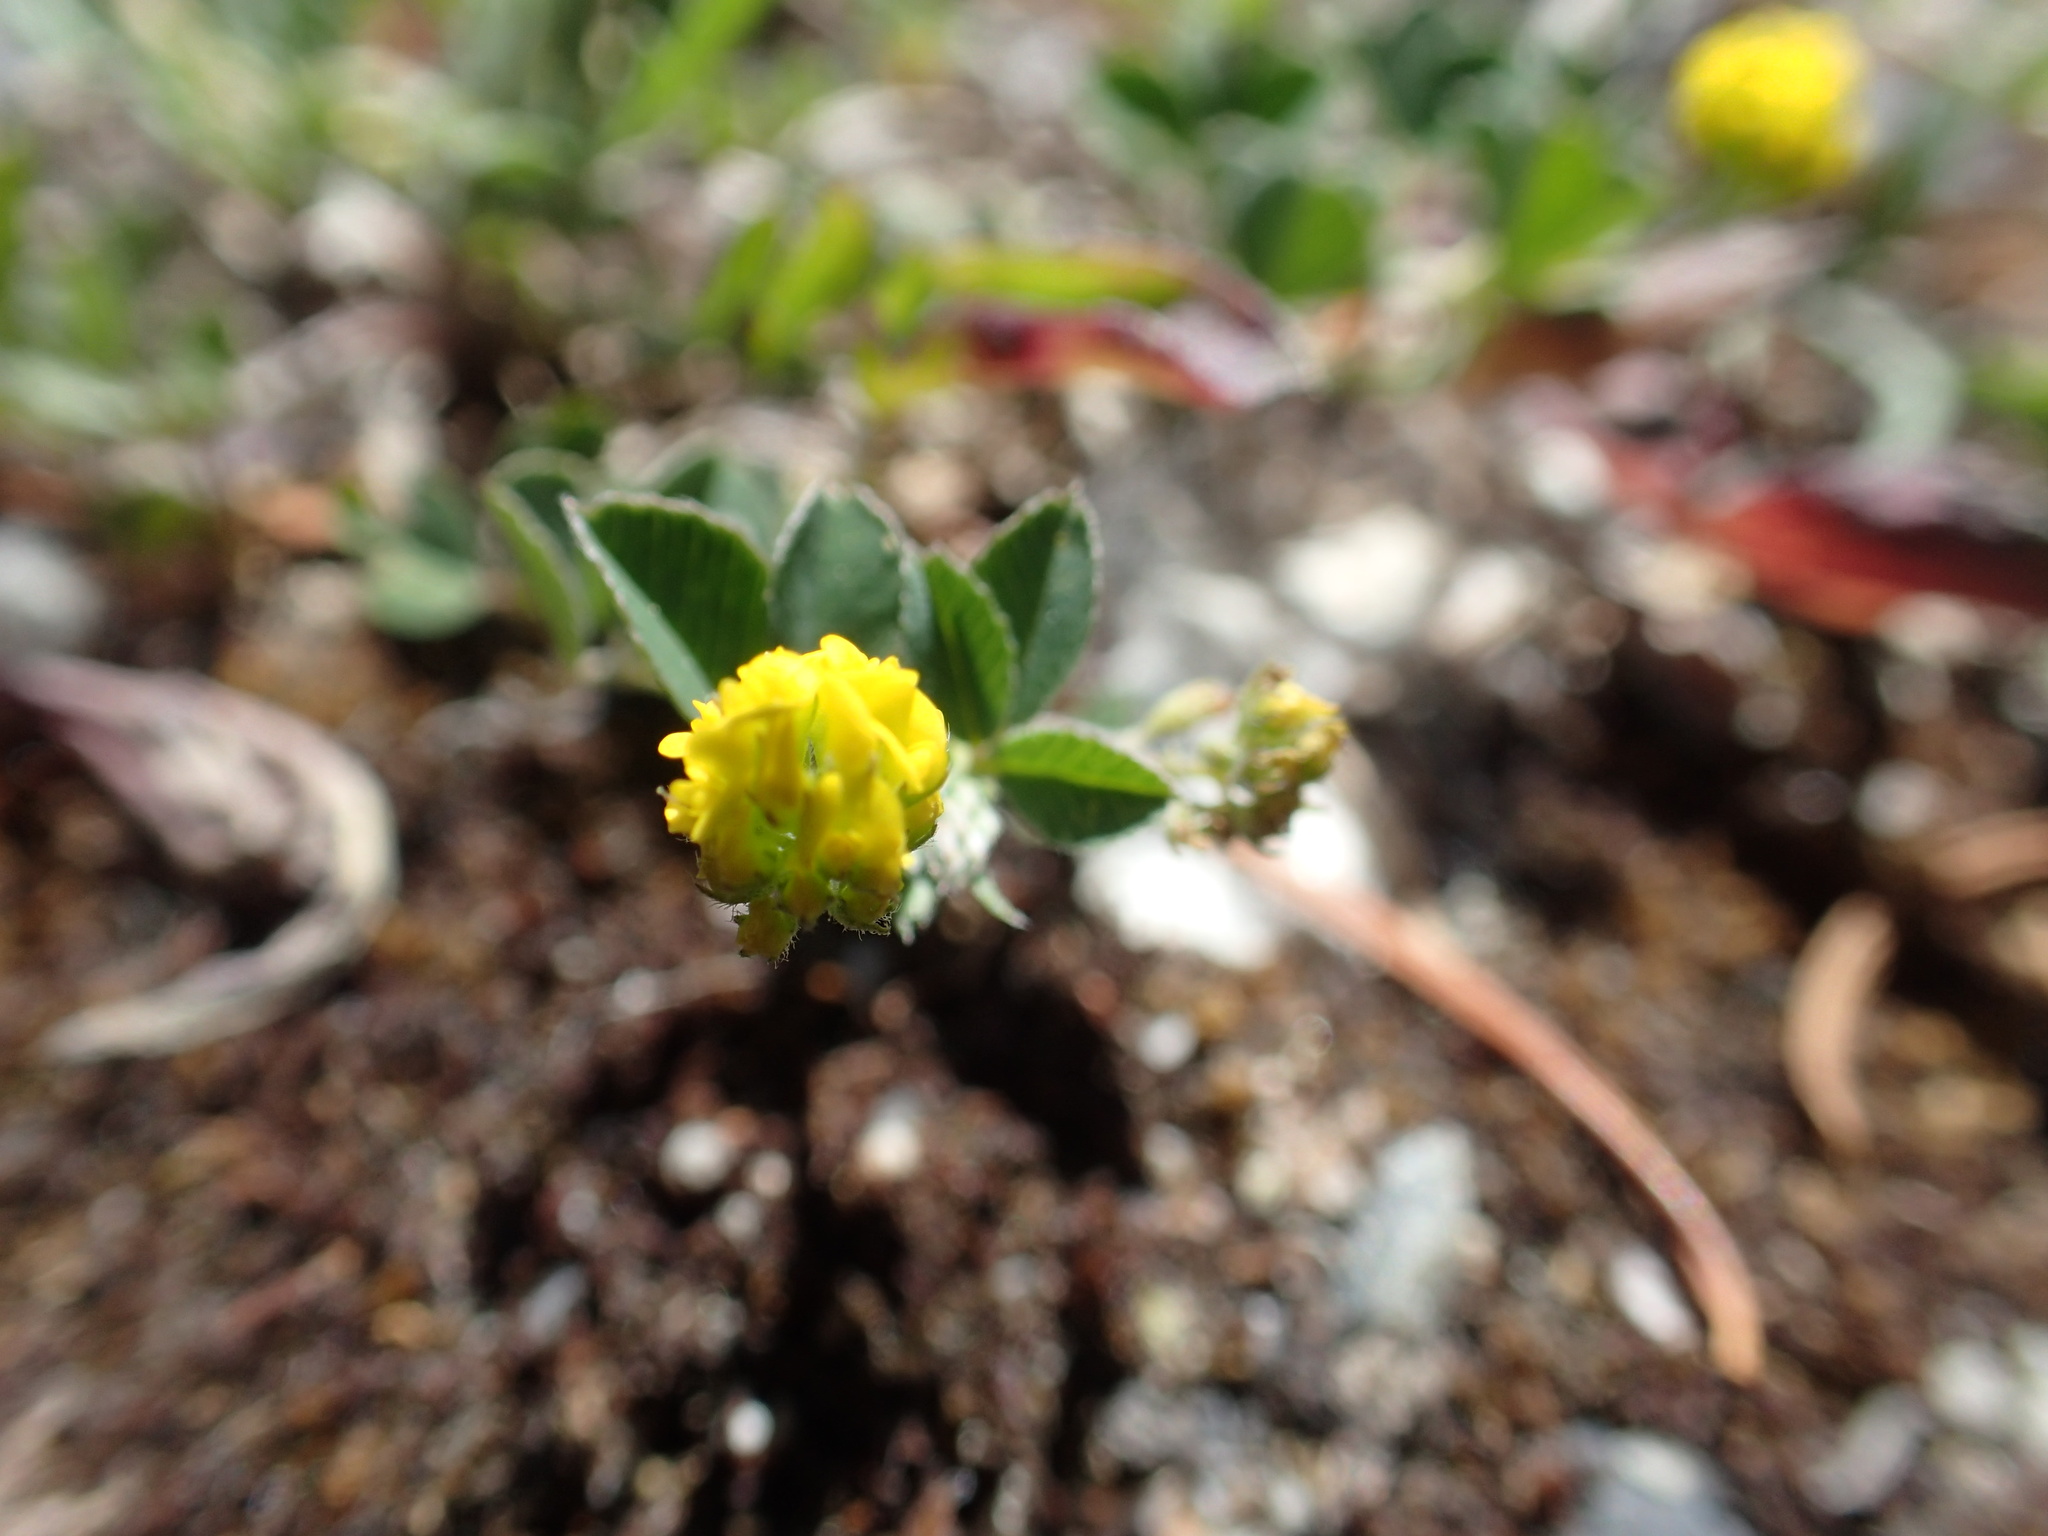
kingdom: Plantae
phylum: Tracheophyta
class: Magnoliopsida
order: Fabales
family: Fabaceae
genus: Medicago
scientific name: Medicago lupulina
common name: Black medick
